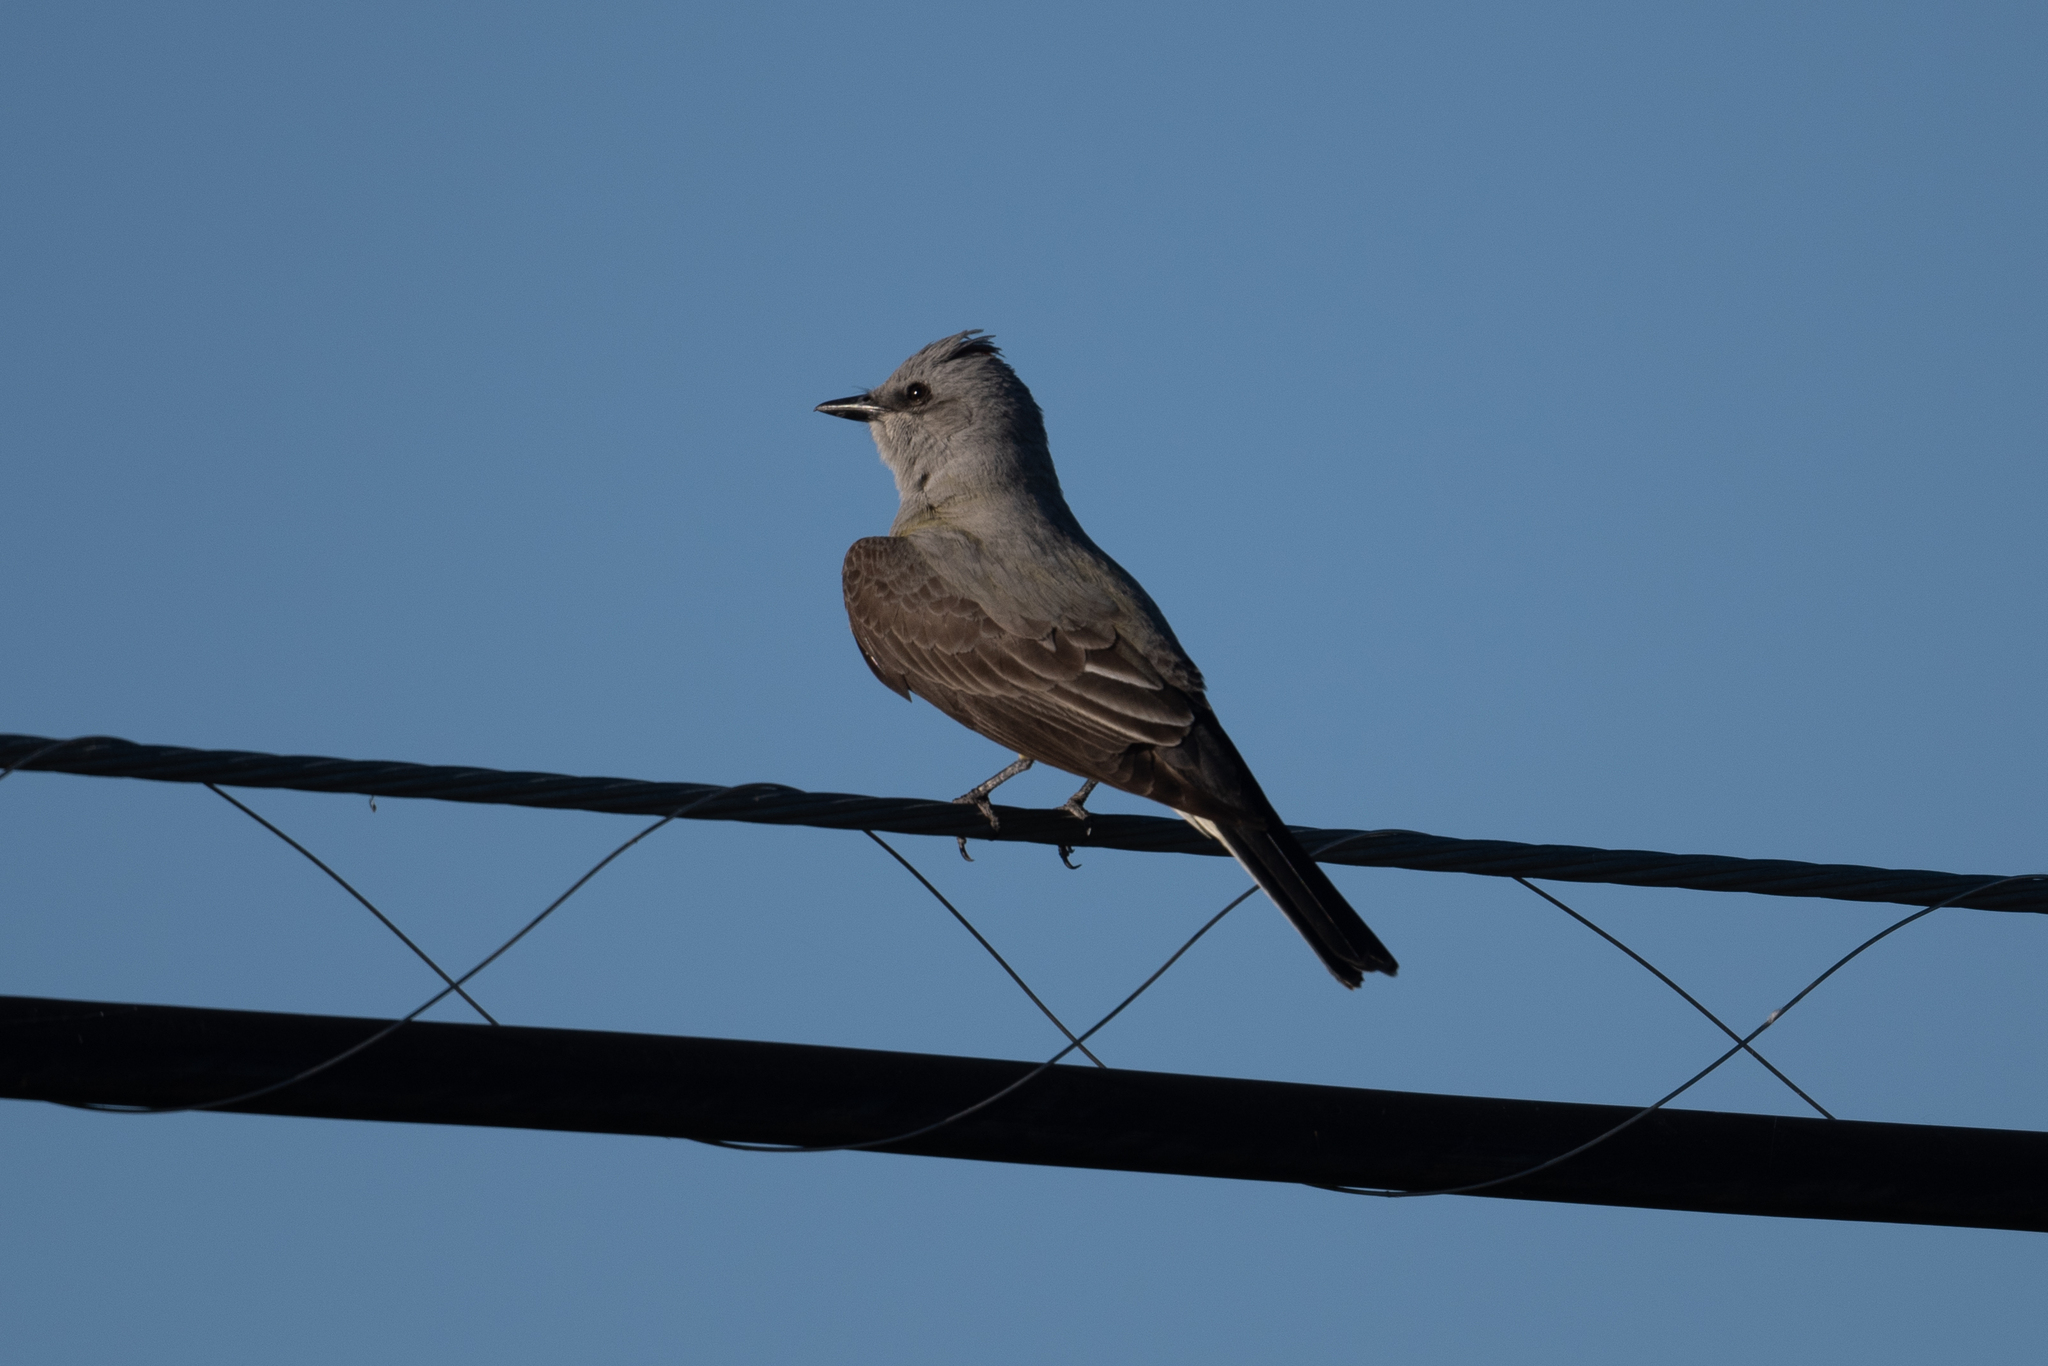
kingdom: Animalia
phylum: Chordata
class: Aves
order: Passeriformes
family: Tyrannidae
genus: Tyrannus
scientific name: Tyrannus verticalis
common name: Western kingbird
